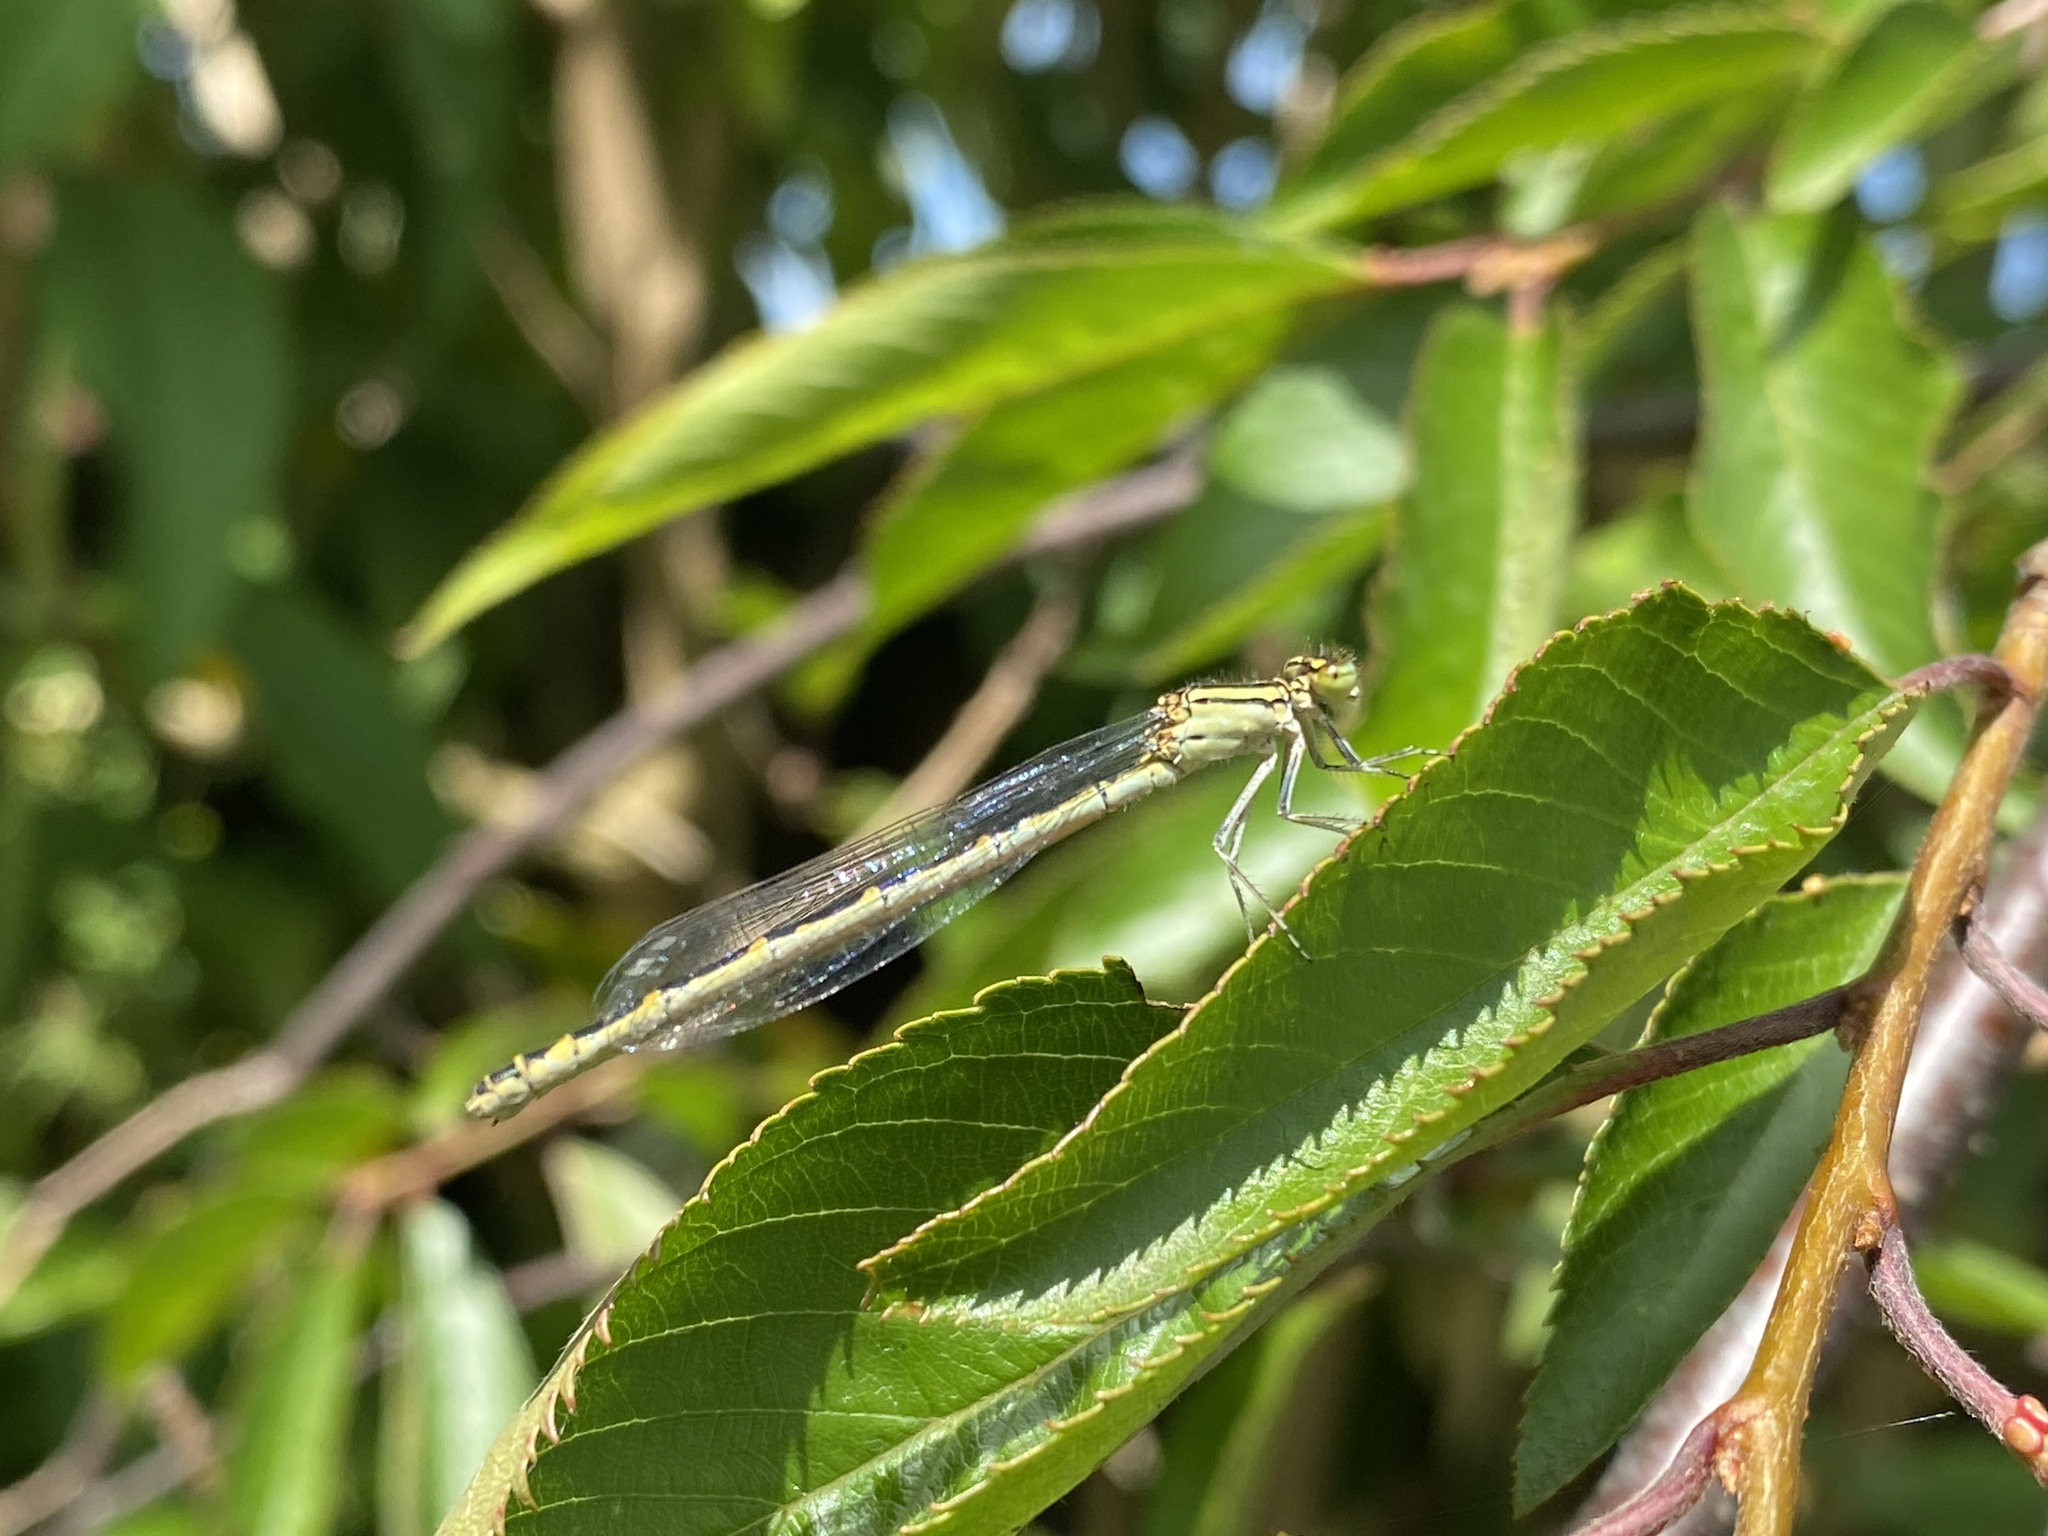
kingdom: Animalia
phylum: Arthropoda
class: Insecta
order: Odonata
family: Coenagrionidae
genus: Enallagma
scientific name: Enallagma cyathigerum
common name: Common blue damselfly
